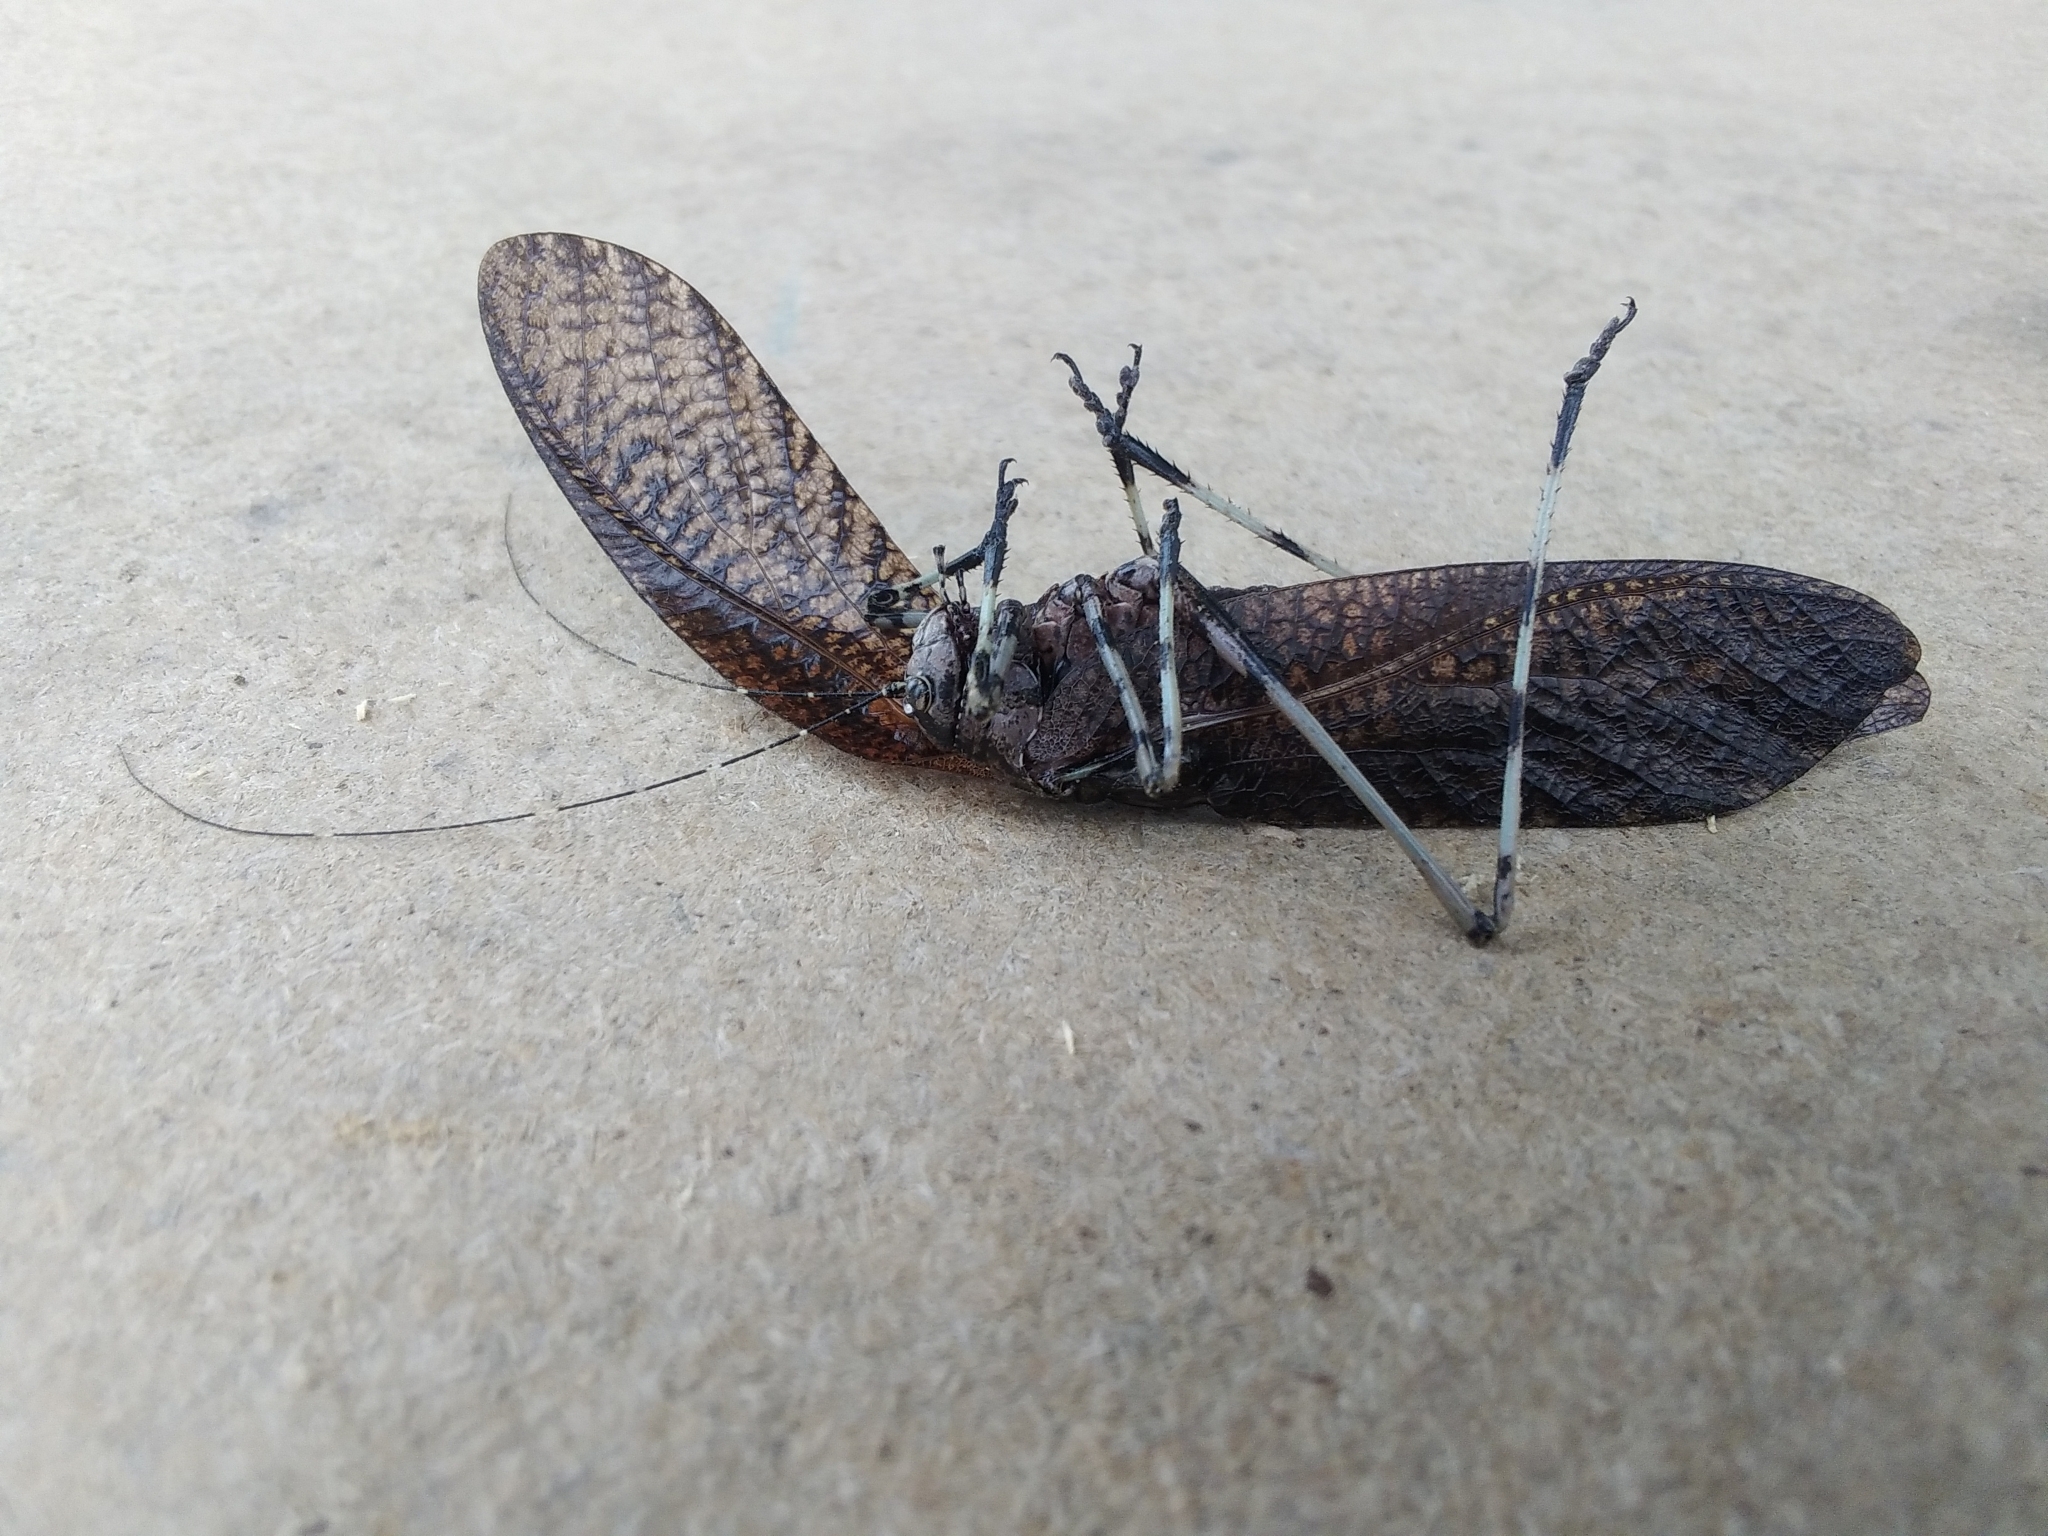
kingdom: Animalia
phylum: Arthropoda
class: Insecta
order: Orthoptera
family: Tettigoniidae
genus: Acripeza
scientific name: Acripeza reticulata
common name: Mountain katydid
